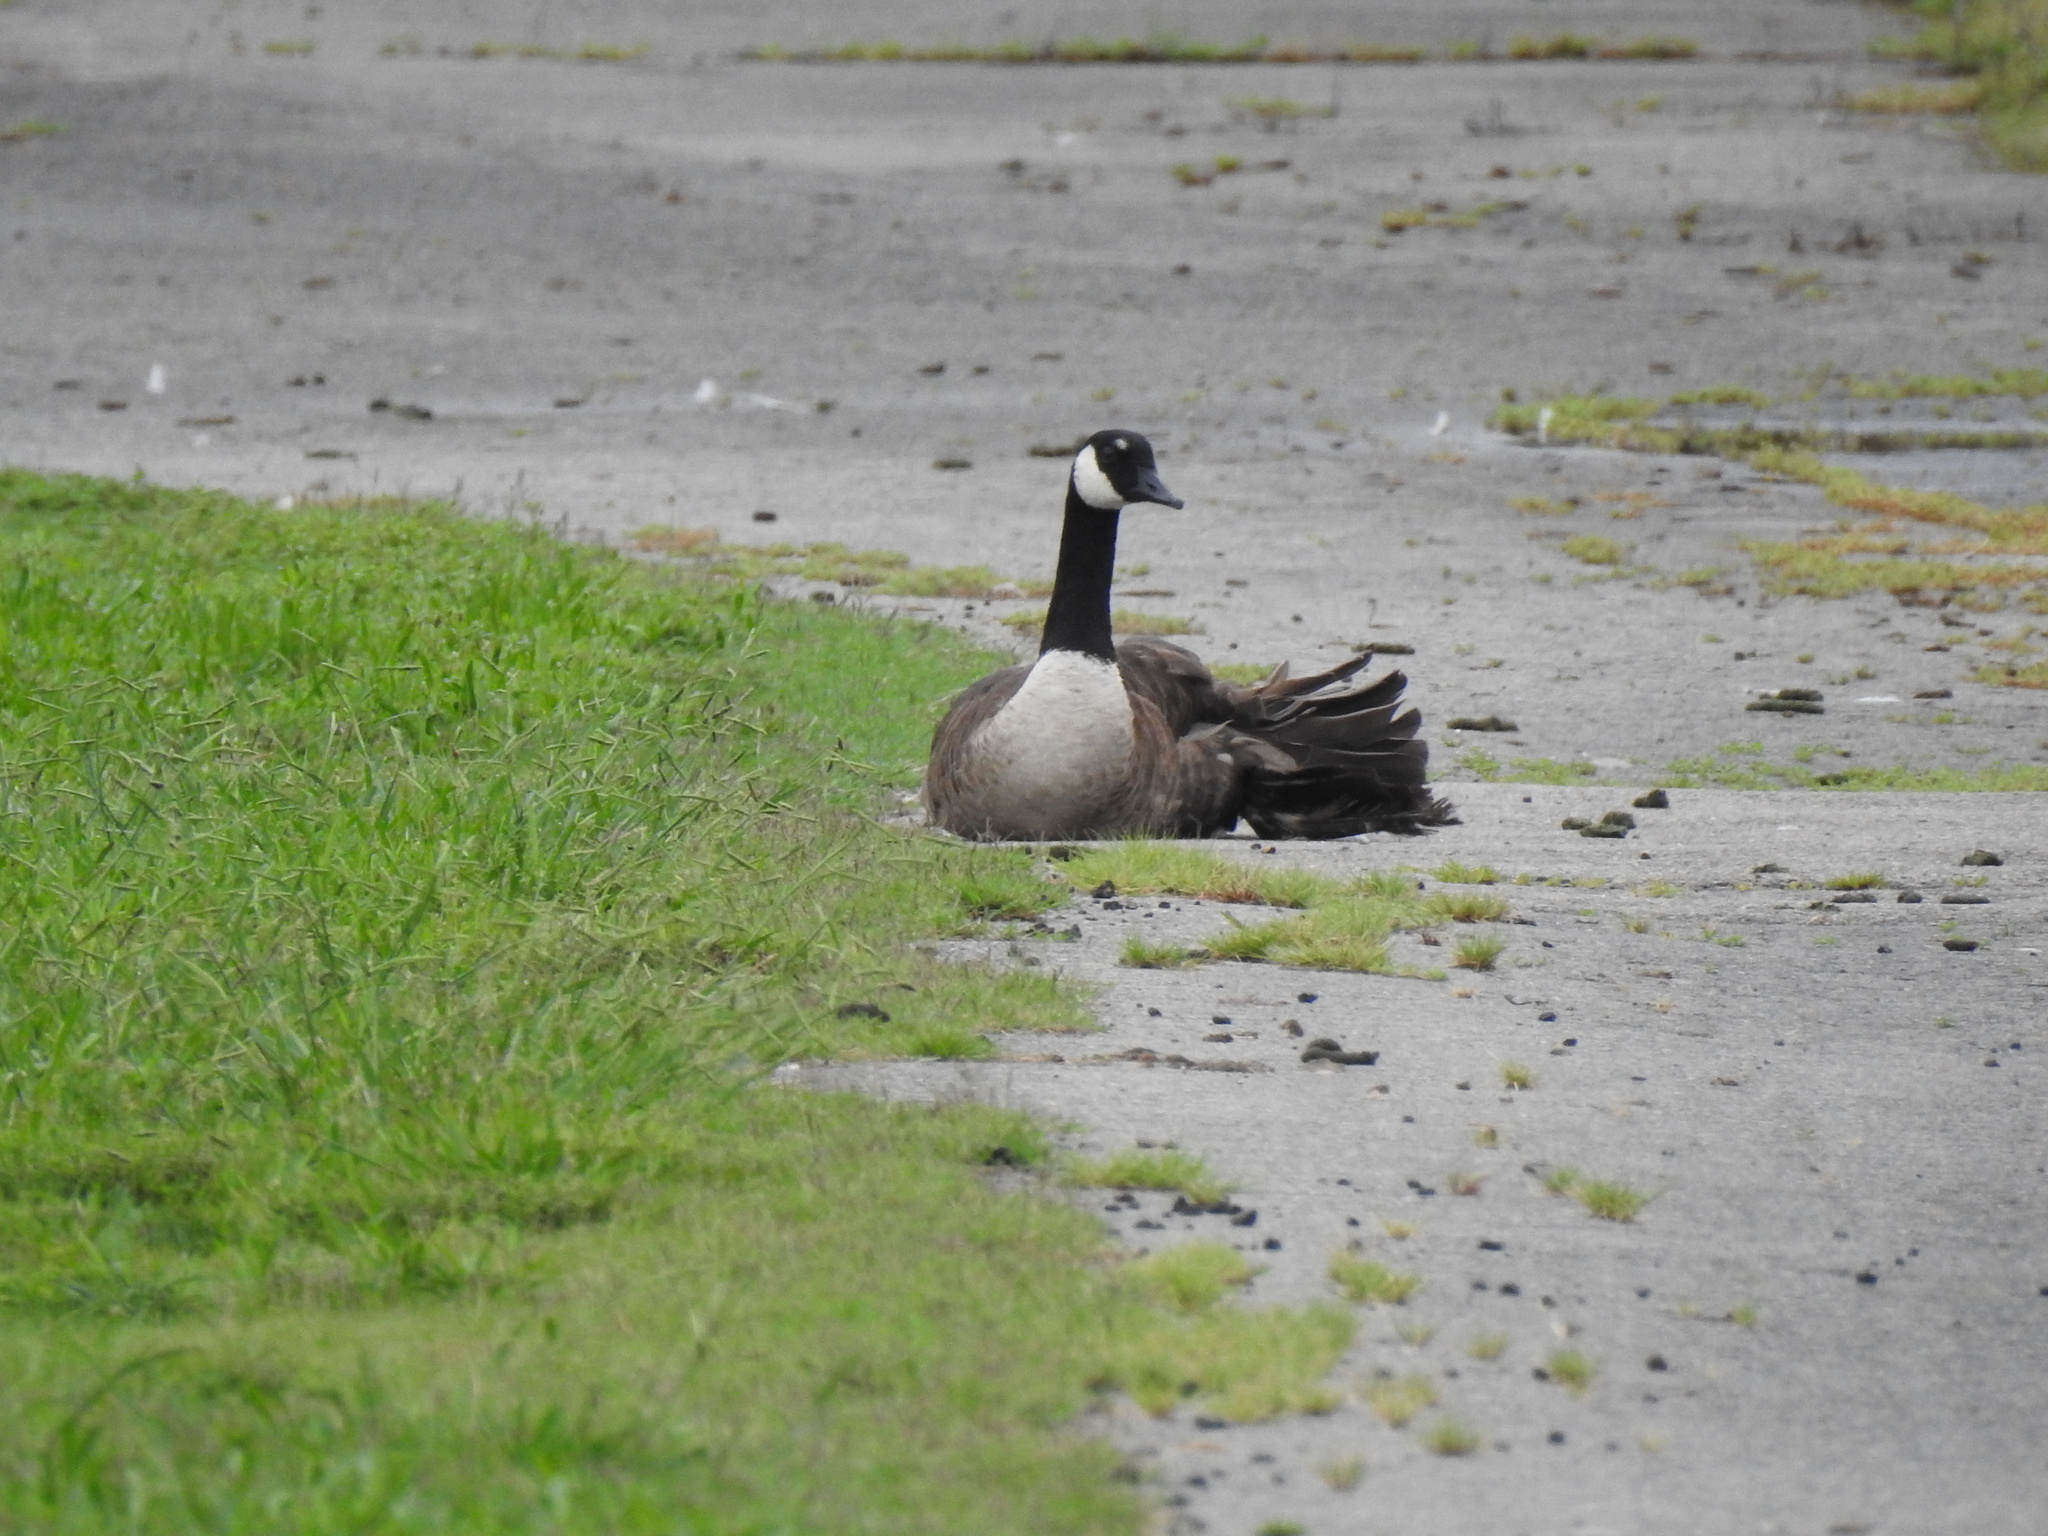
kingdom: Animalia
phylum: Chordata
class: Aves
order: Anseriformes
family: Anatidae
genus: Branta
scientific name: Branta canadensis
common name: Canada goose
